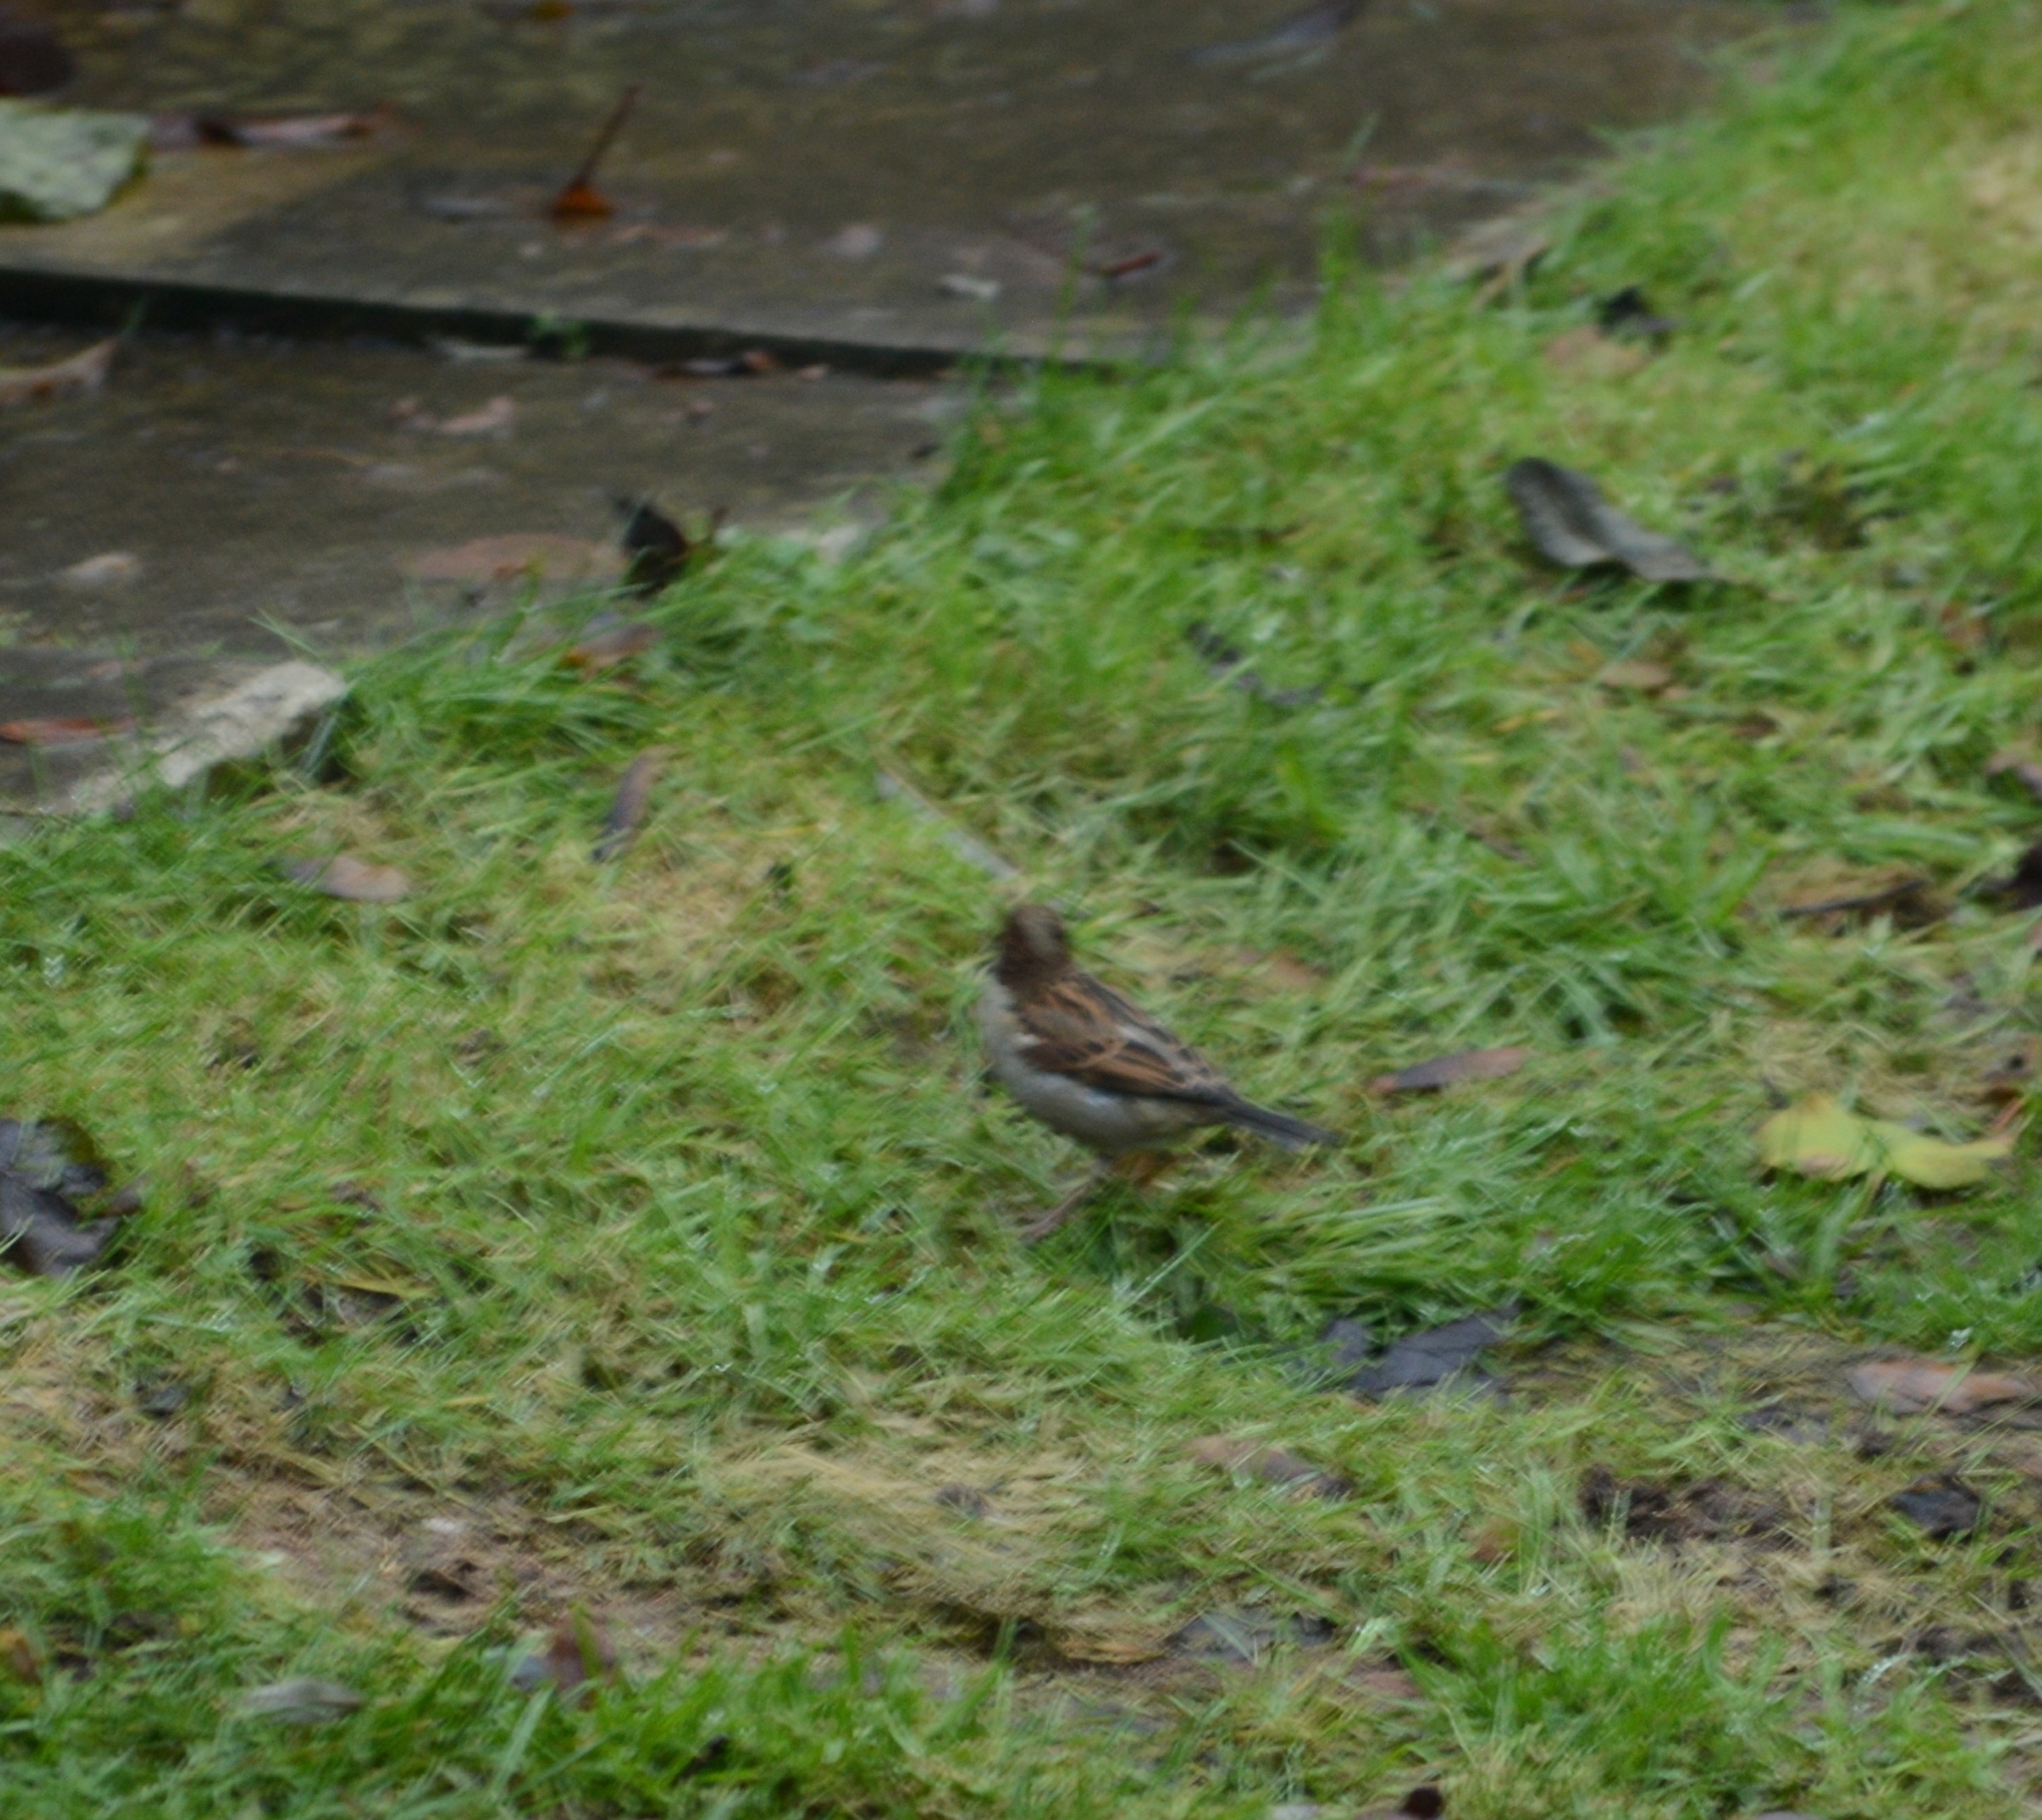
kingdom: Animalia
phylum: Chordata
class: Aves
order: Passeriformes
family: Passeridae
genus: Passer
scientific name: Passer domesticus
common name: House sparrow
